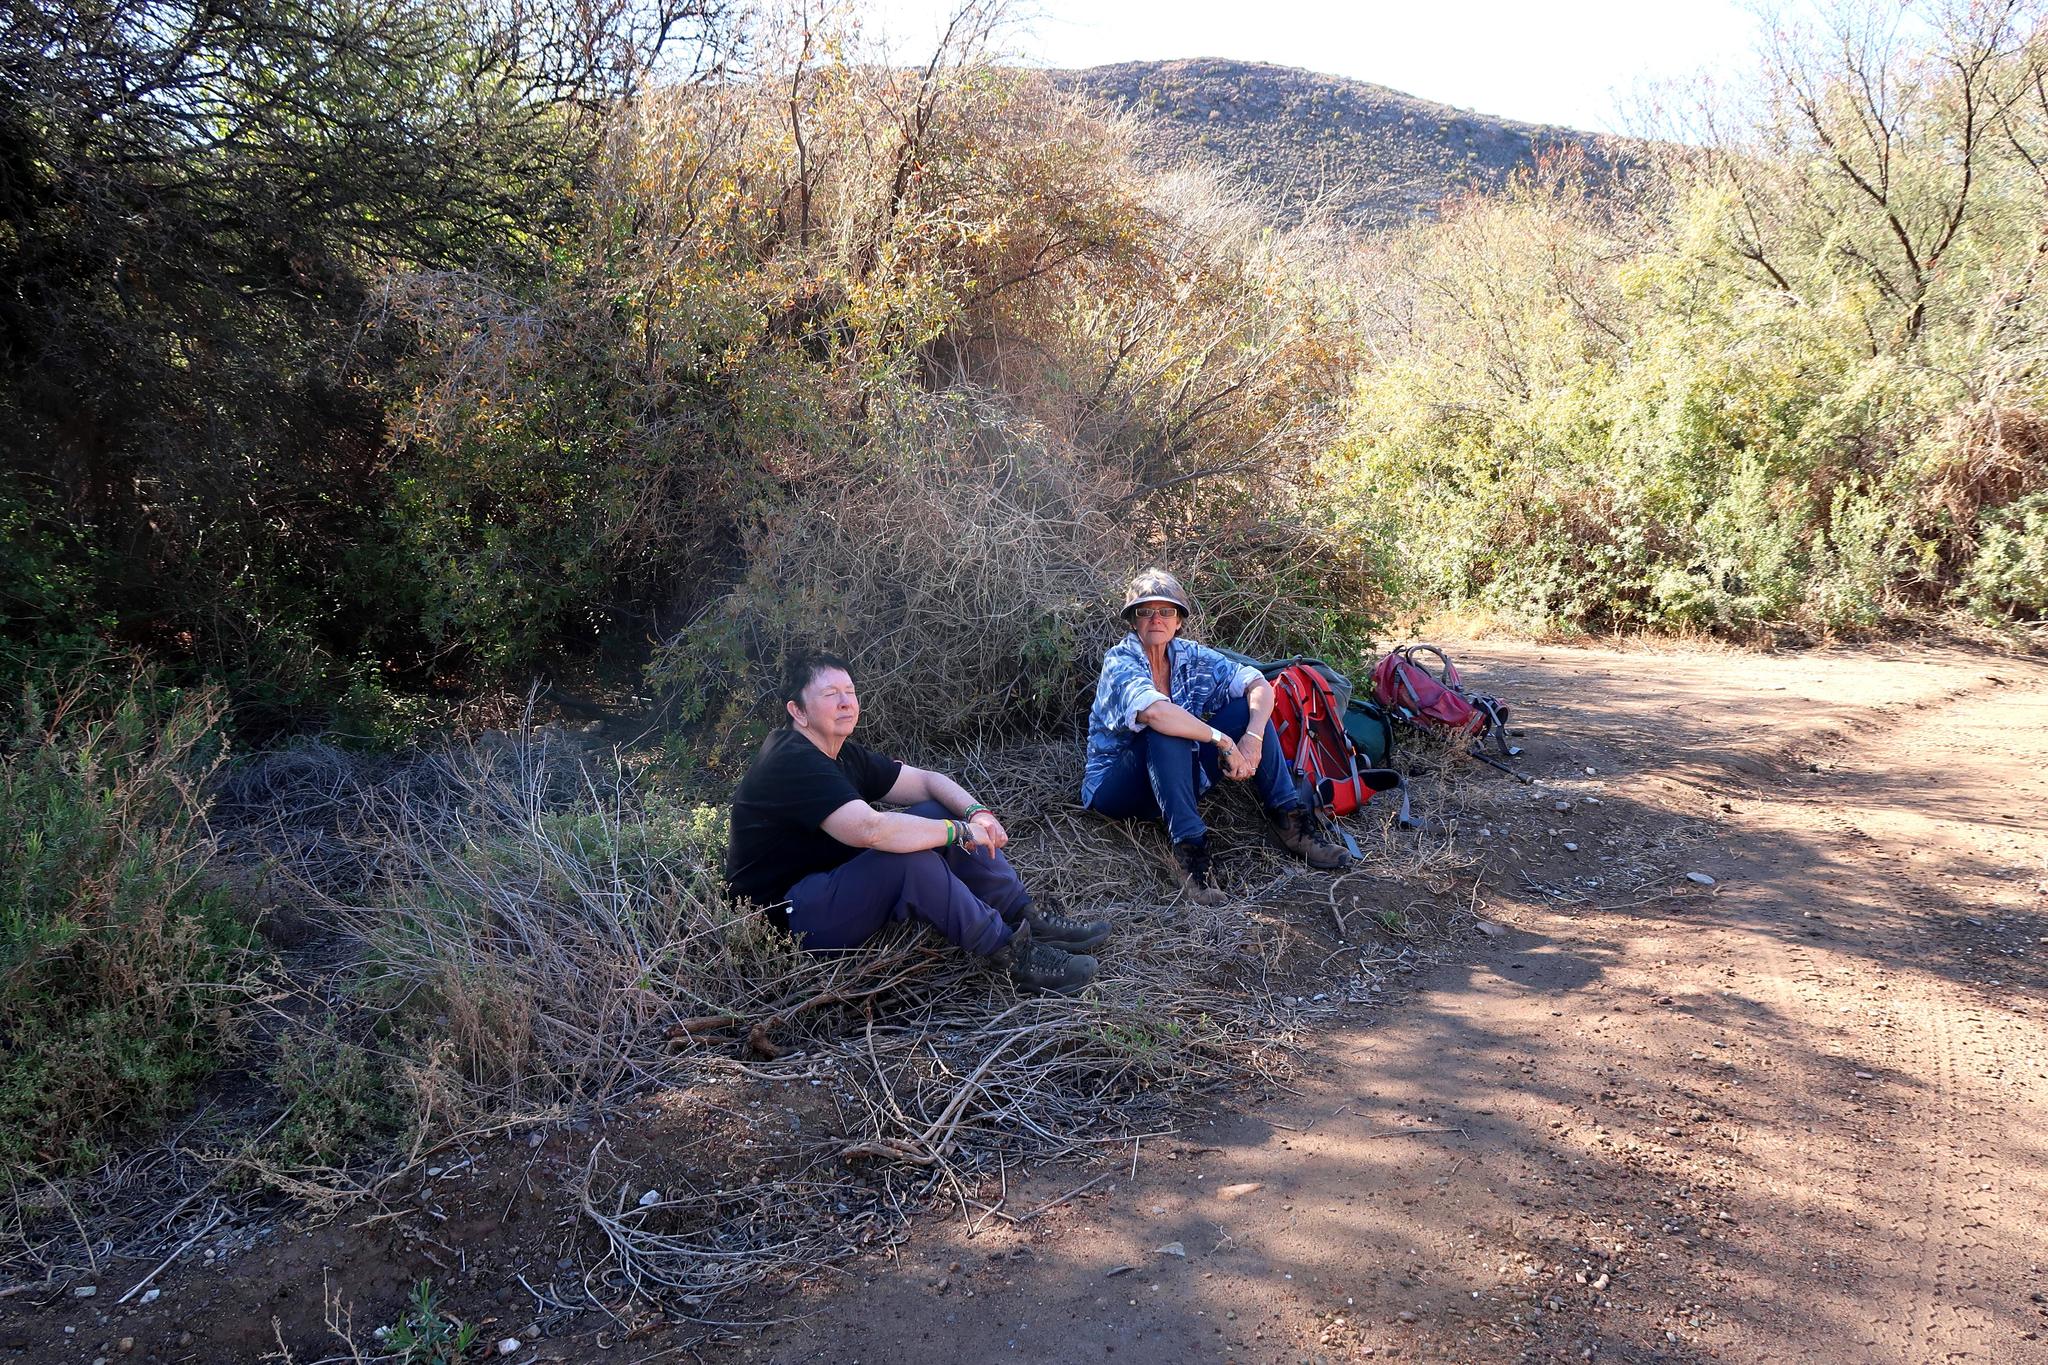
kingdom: Plantae
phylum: Tracheophyta
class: Magnoliopsida
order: Fabales
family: Fabaceae
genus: Vachellia
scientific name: Vachellia karroo
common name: Sweet thorn
